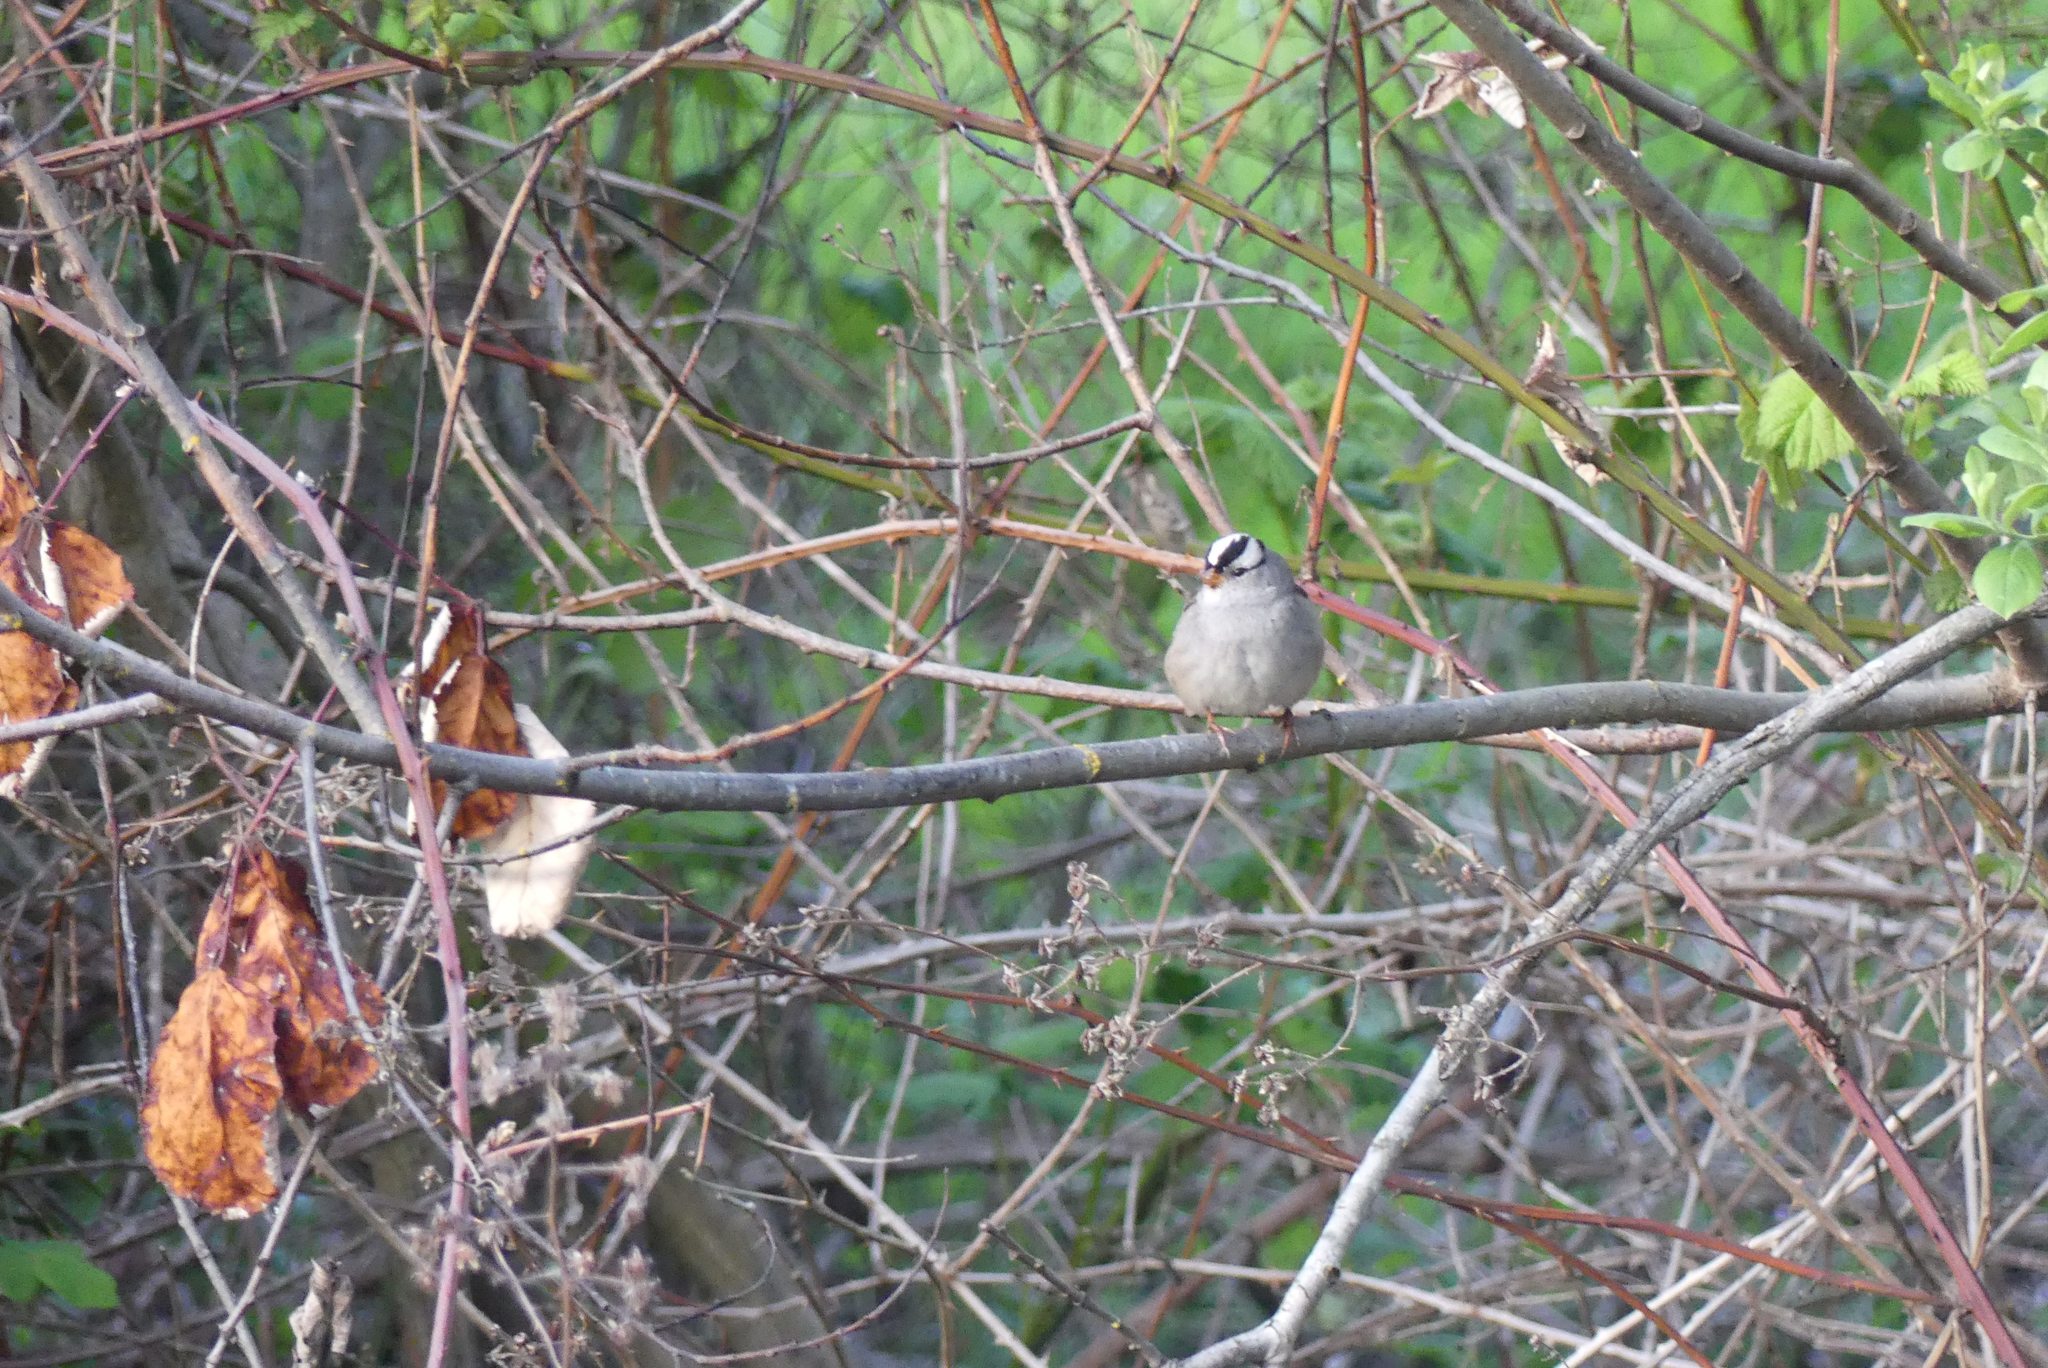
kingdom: Animalia
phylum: Chordata
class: Aves
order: Passeriformes
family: Passerellidae
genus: Zonotrichia
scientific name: Zonotrichia leucophrys
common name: White-crowned sparrow
